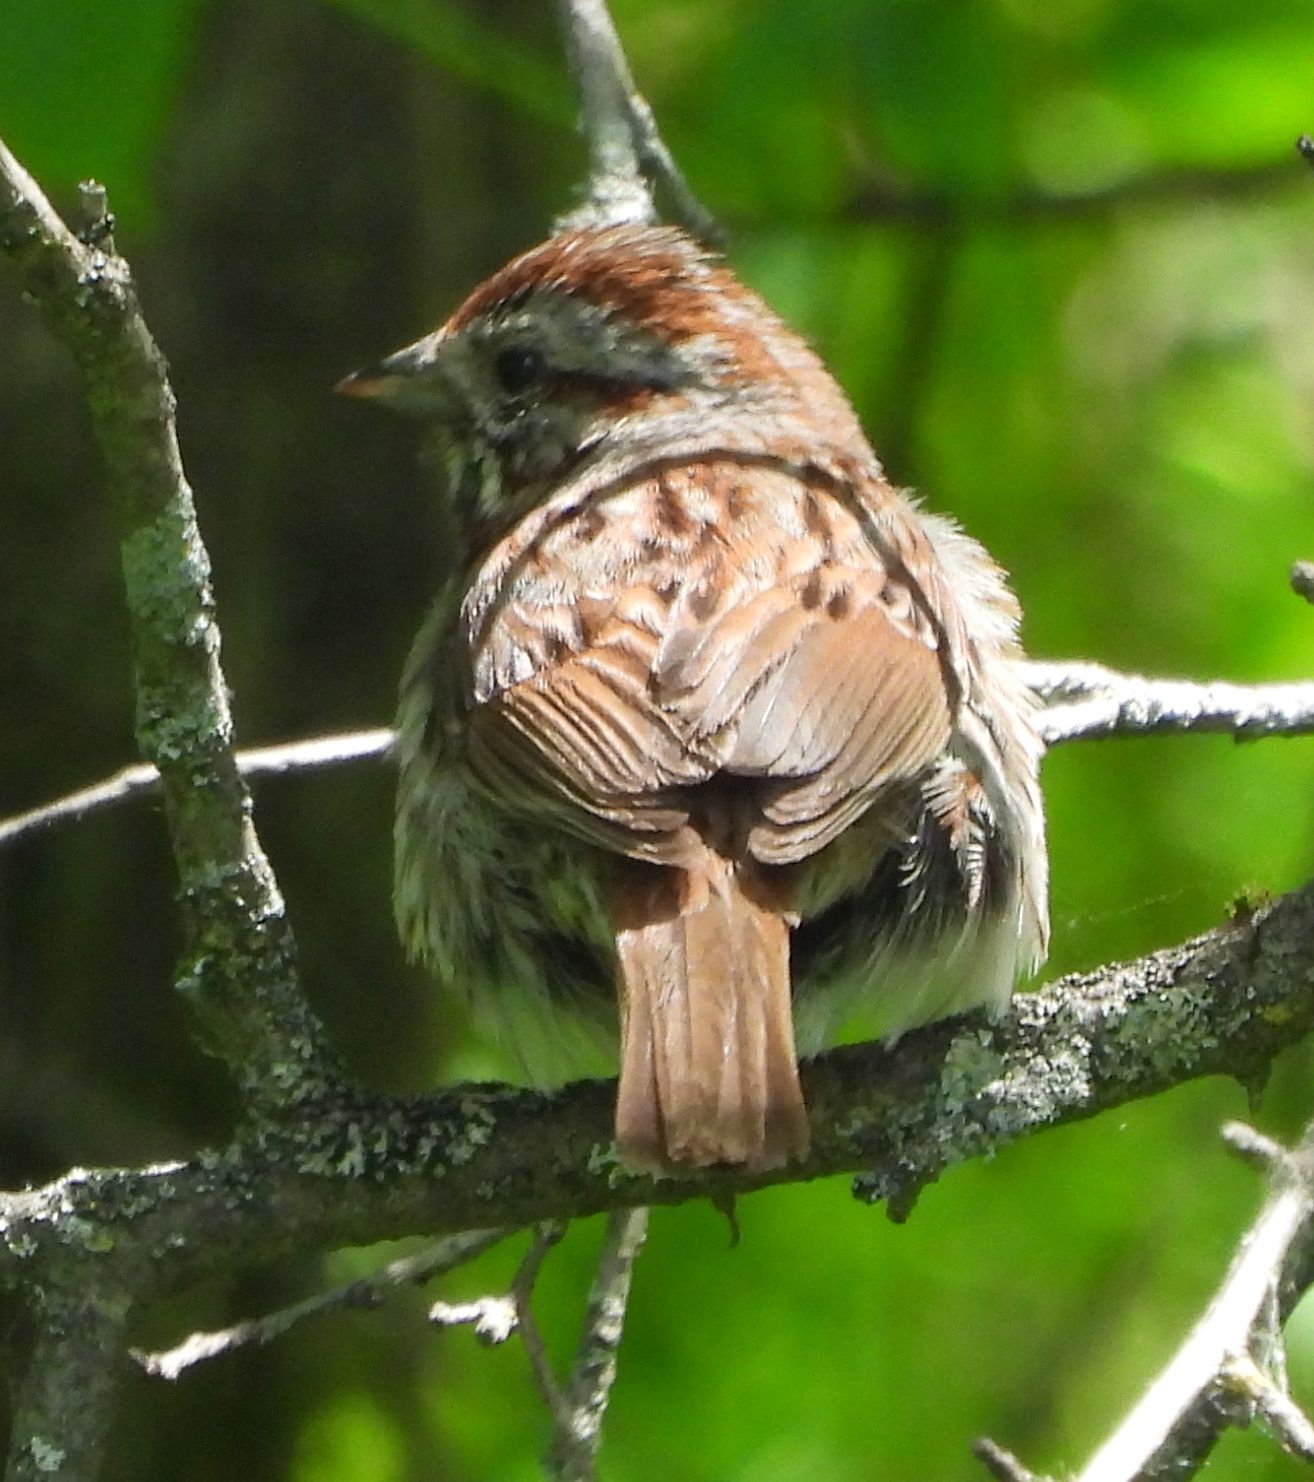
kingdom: Animalia
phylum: Chordata
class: Aves
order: Passeriformes
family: Passerellidae
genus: Melospiza
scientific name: Melospiza melodia
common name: Song sparrow
